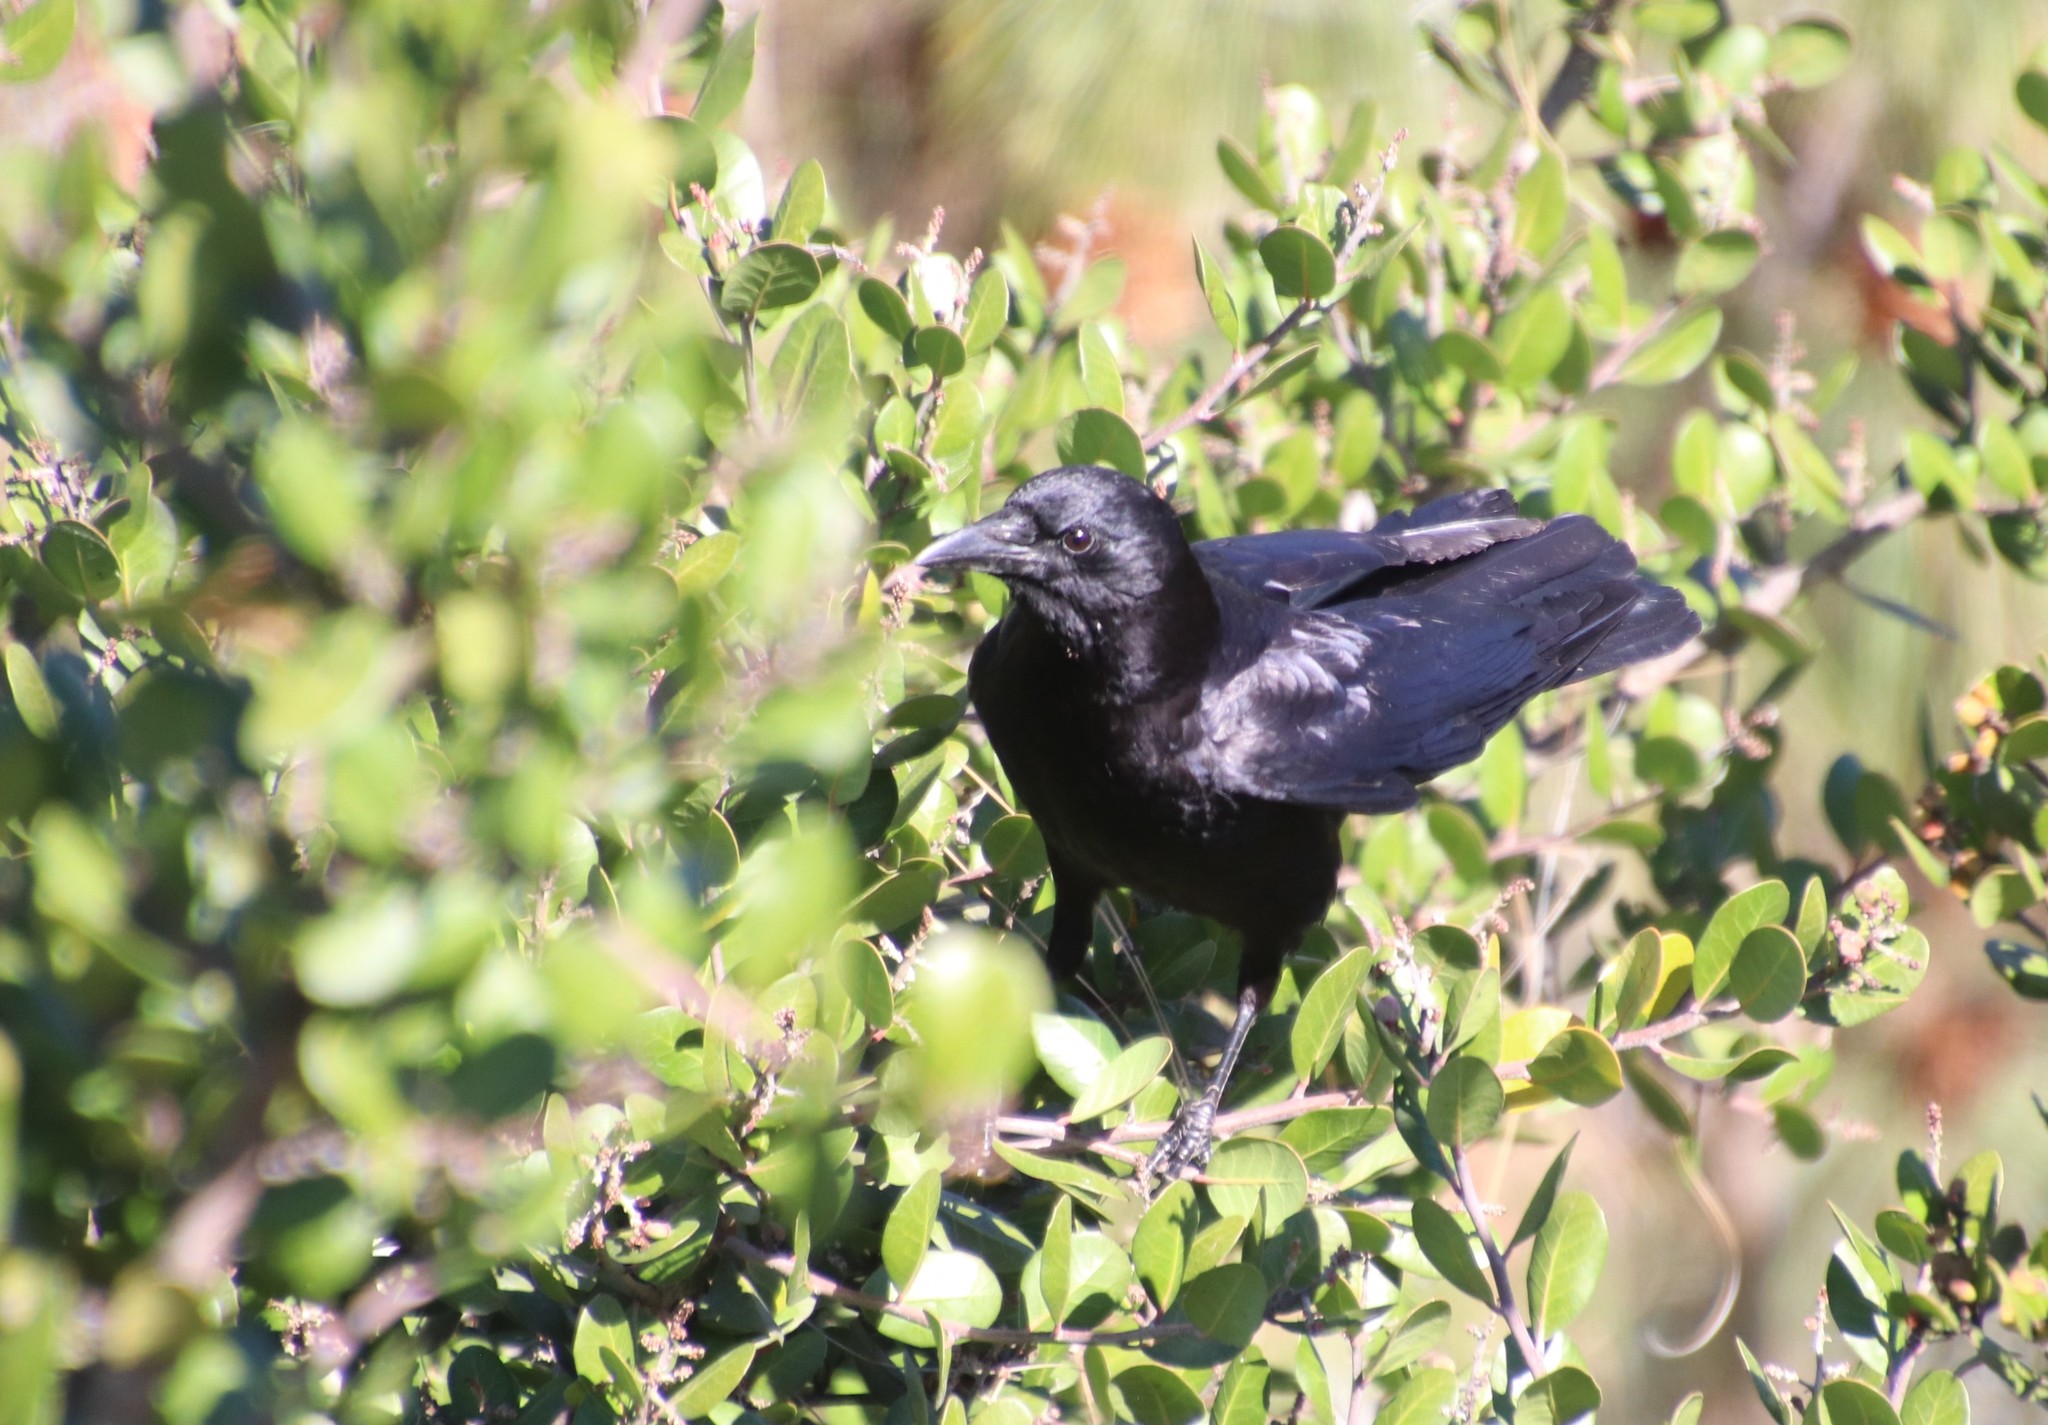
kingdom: Animalia
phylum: Chordata
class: Aves
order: Passeriformes
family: Corvidae
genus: Corvus
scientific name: Corvus brachyrhynchos
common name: American crow
